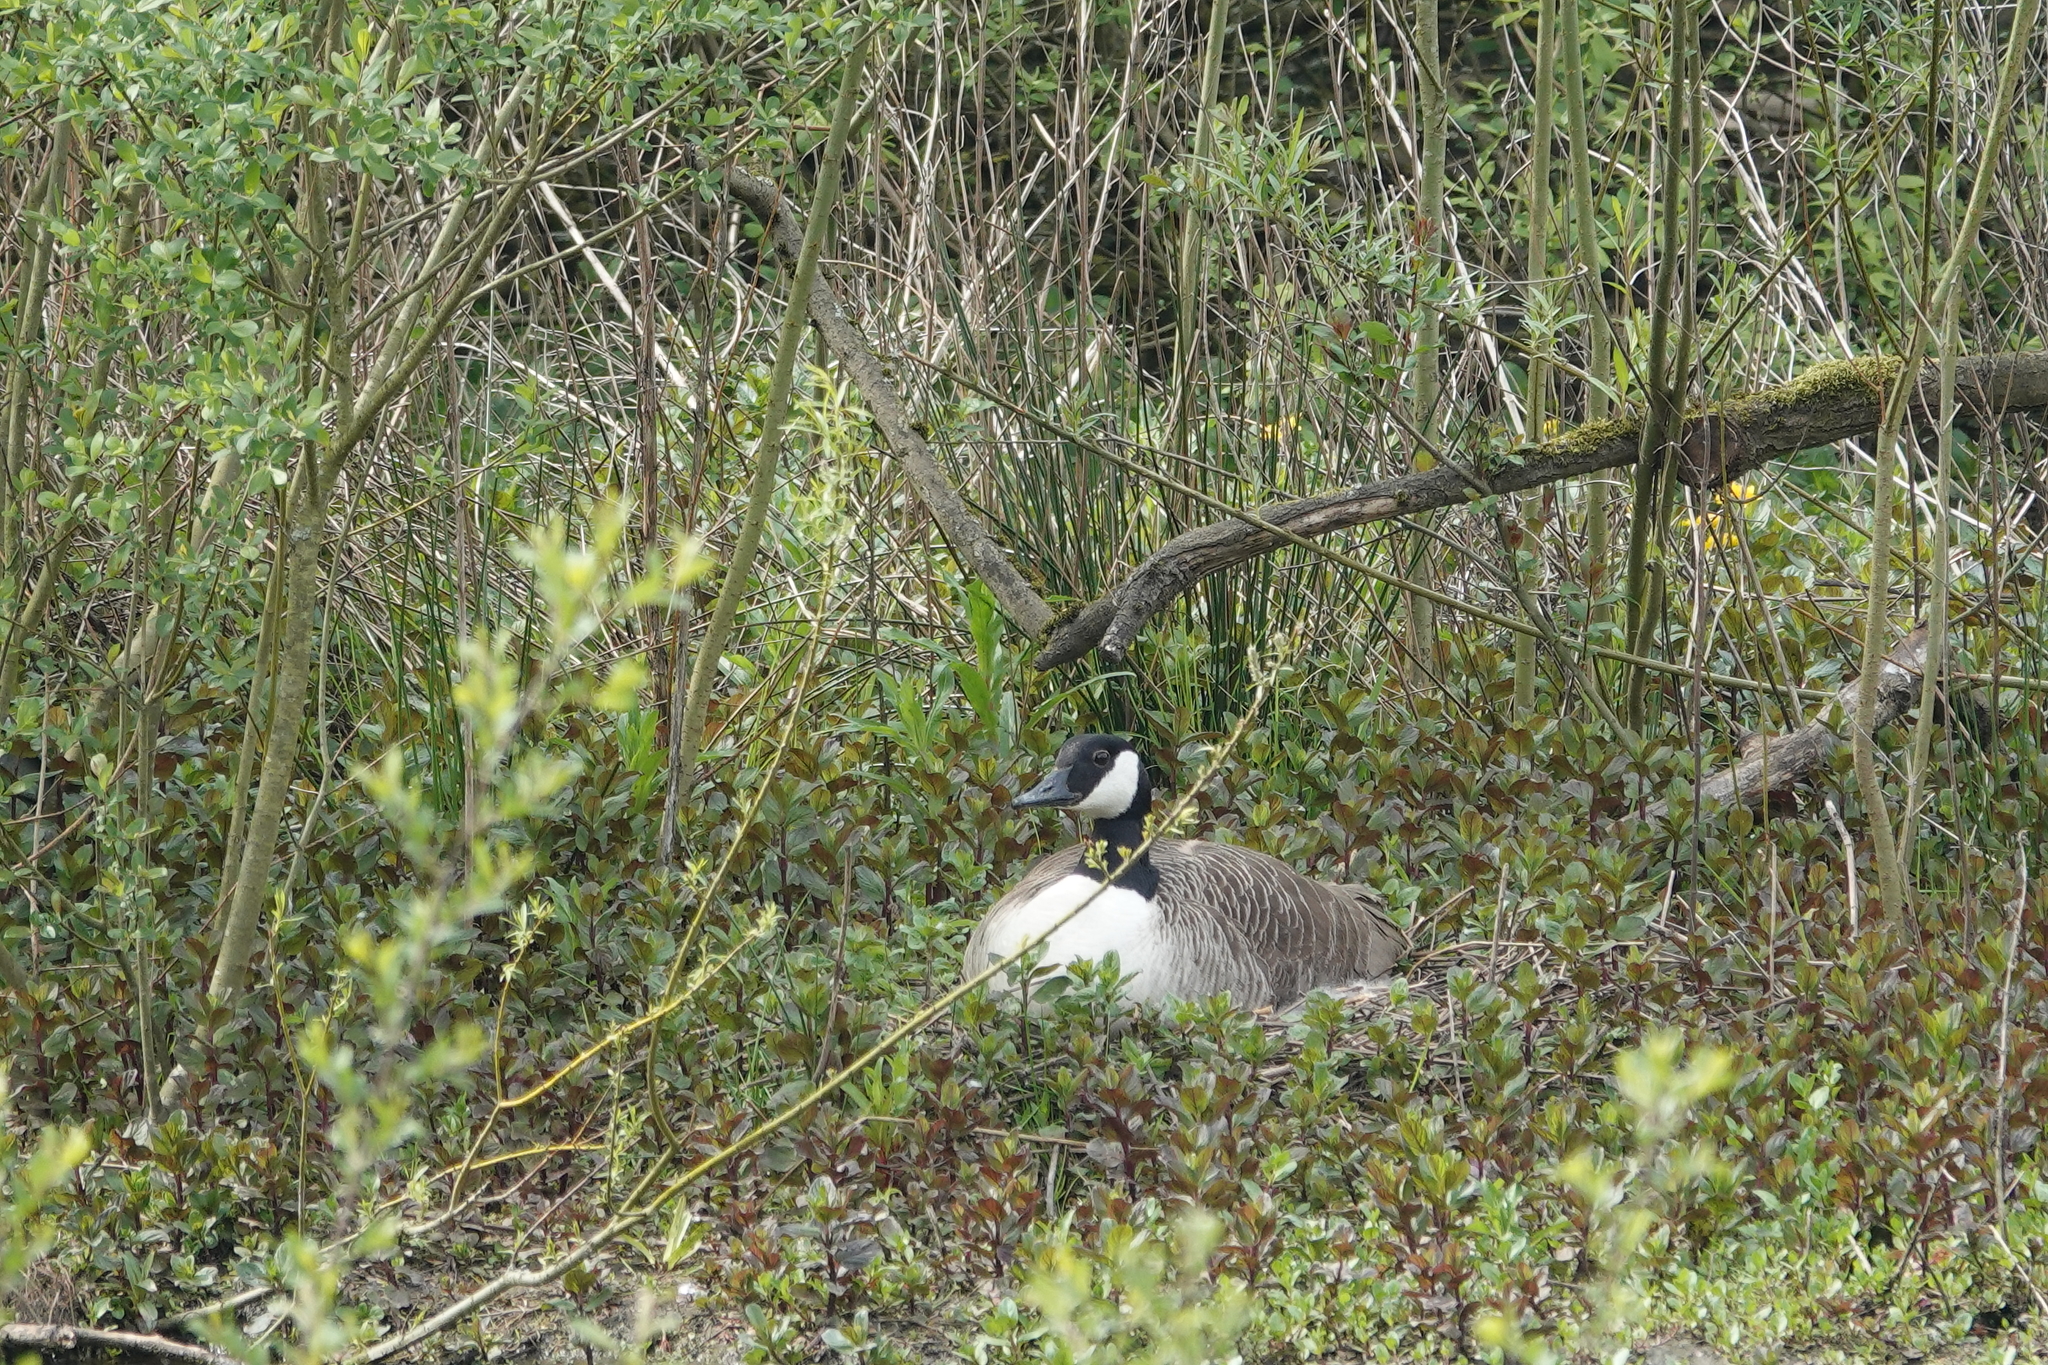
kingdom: Animalia
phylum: Chordata
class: Aves
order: Anseriformes
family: Anatidae
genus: Branta
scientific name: Branta canadensis
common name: Canada goose
